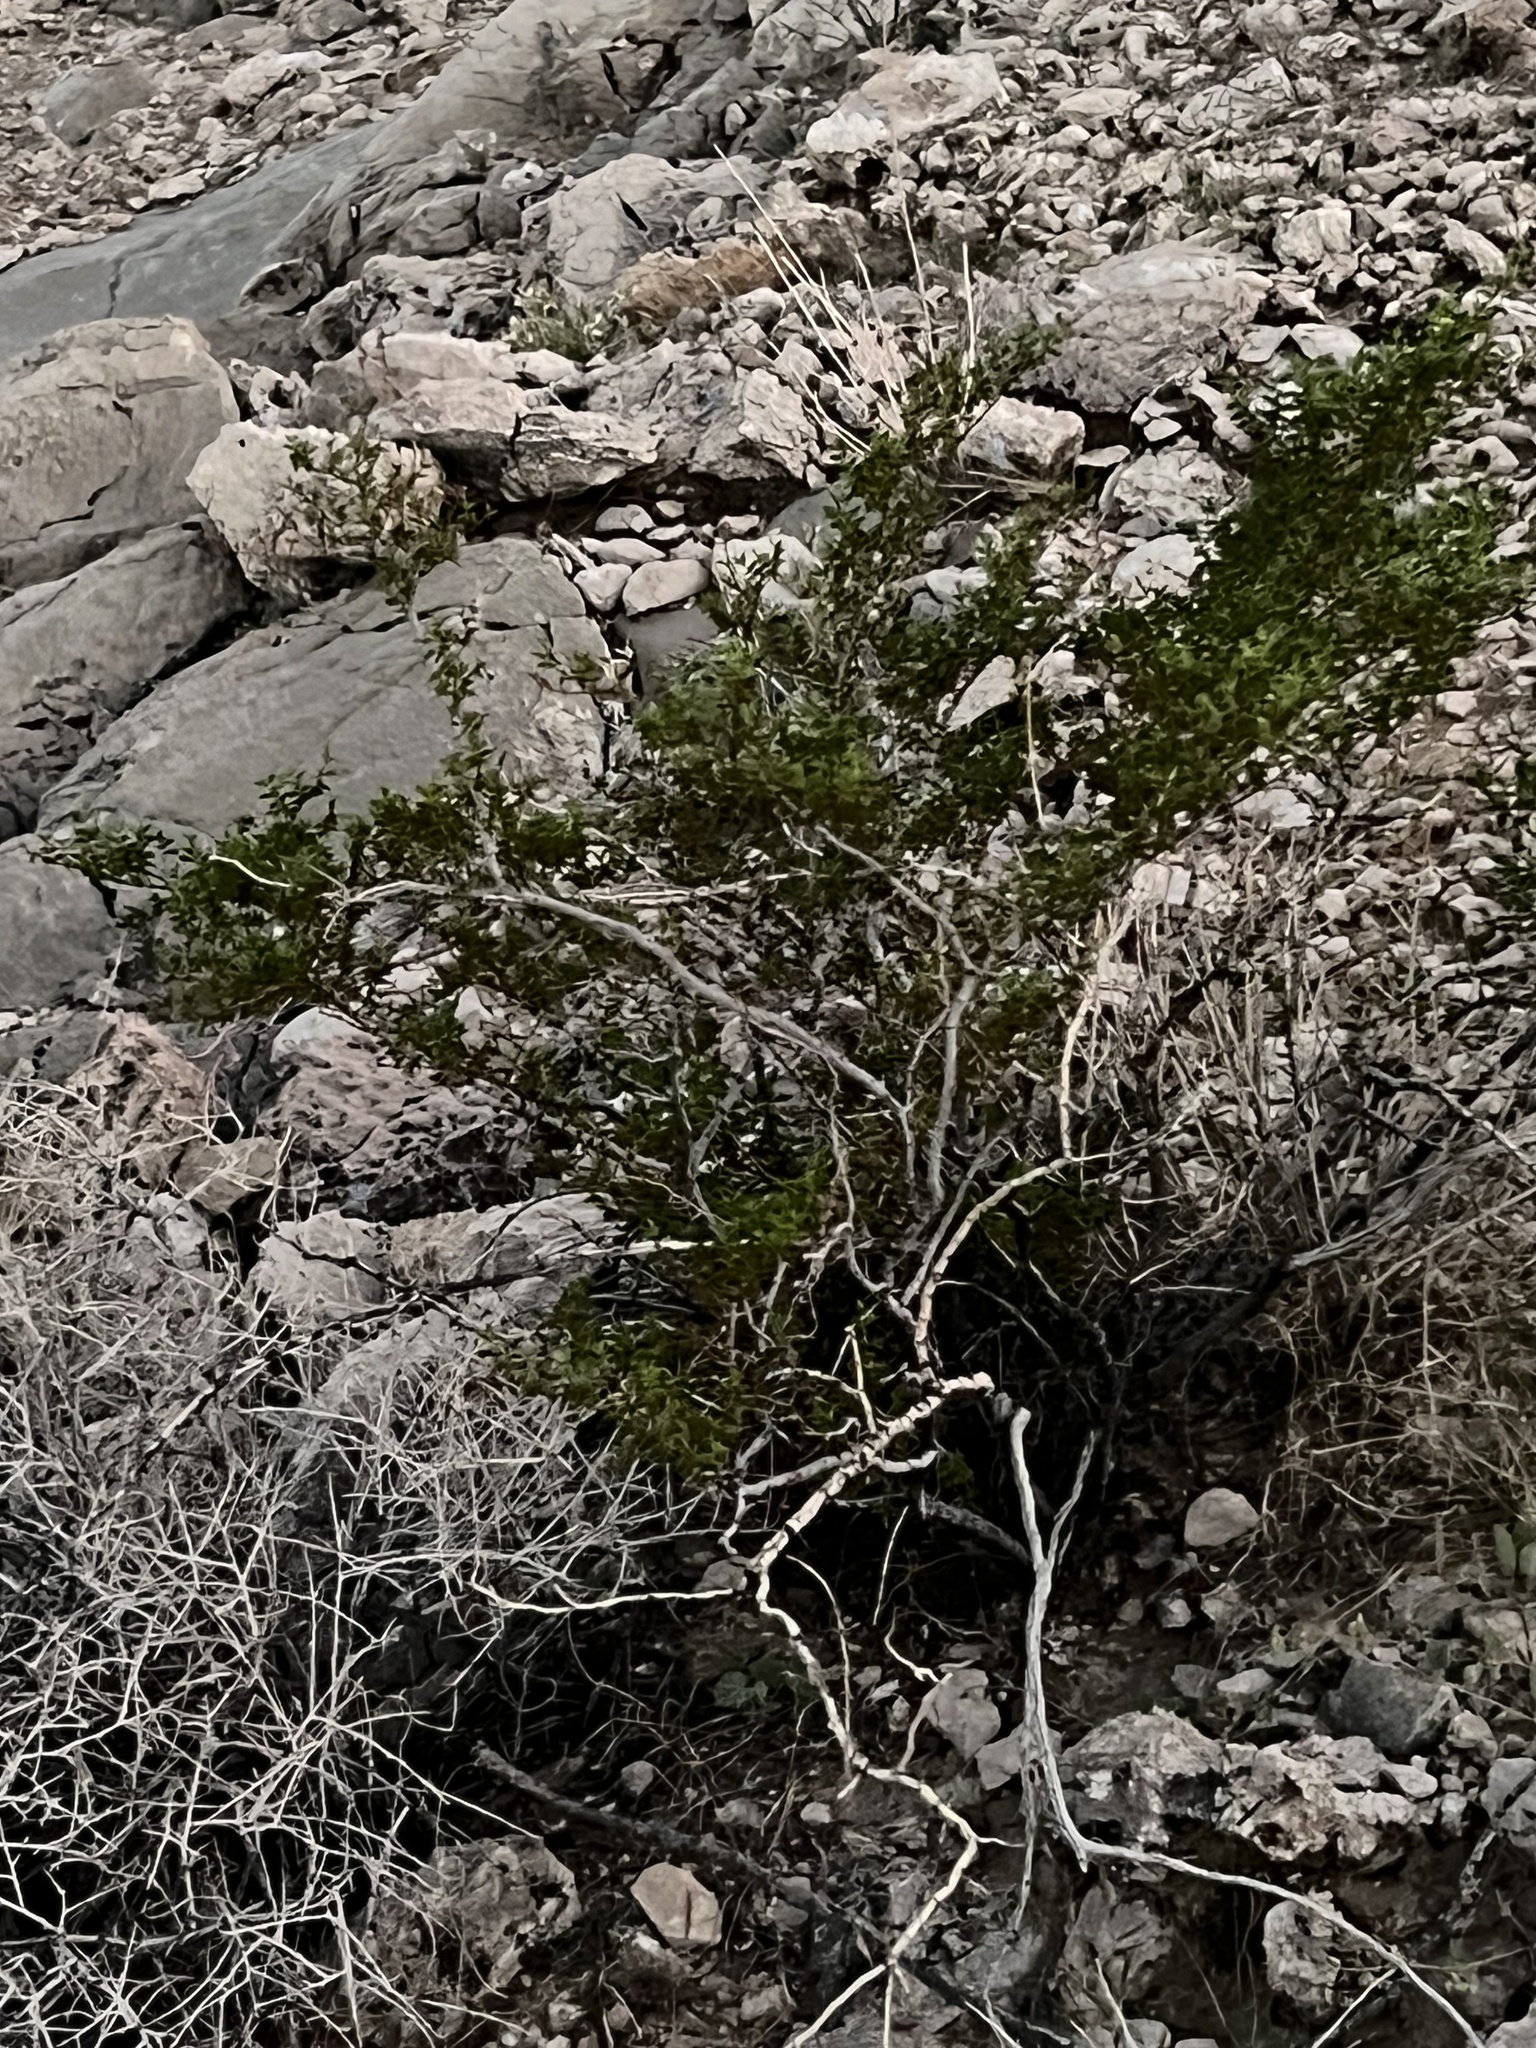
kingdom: Plantae
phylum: Tracheophyta
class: Magnoliopsida
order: Zygophyllales
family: Zygophyllaceae
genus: Larrea
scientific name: Larrea tridentata
